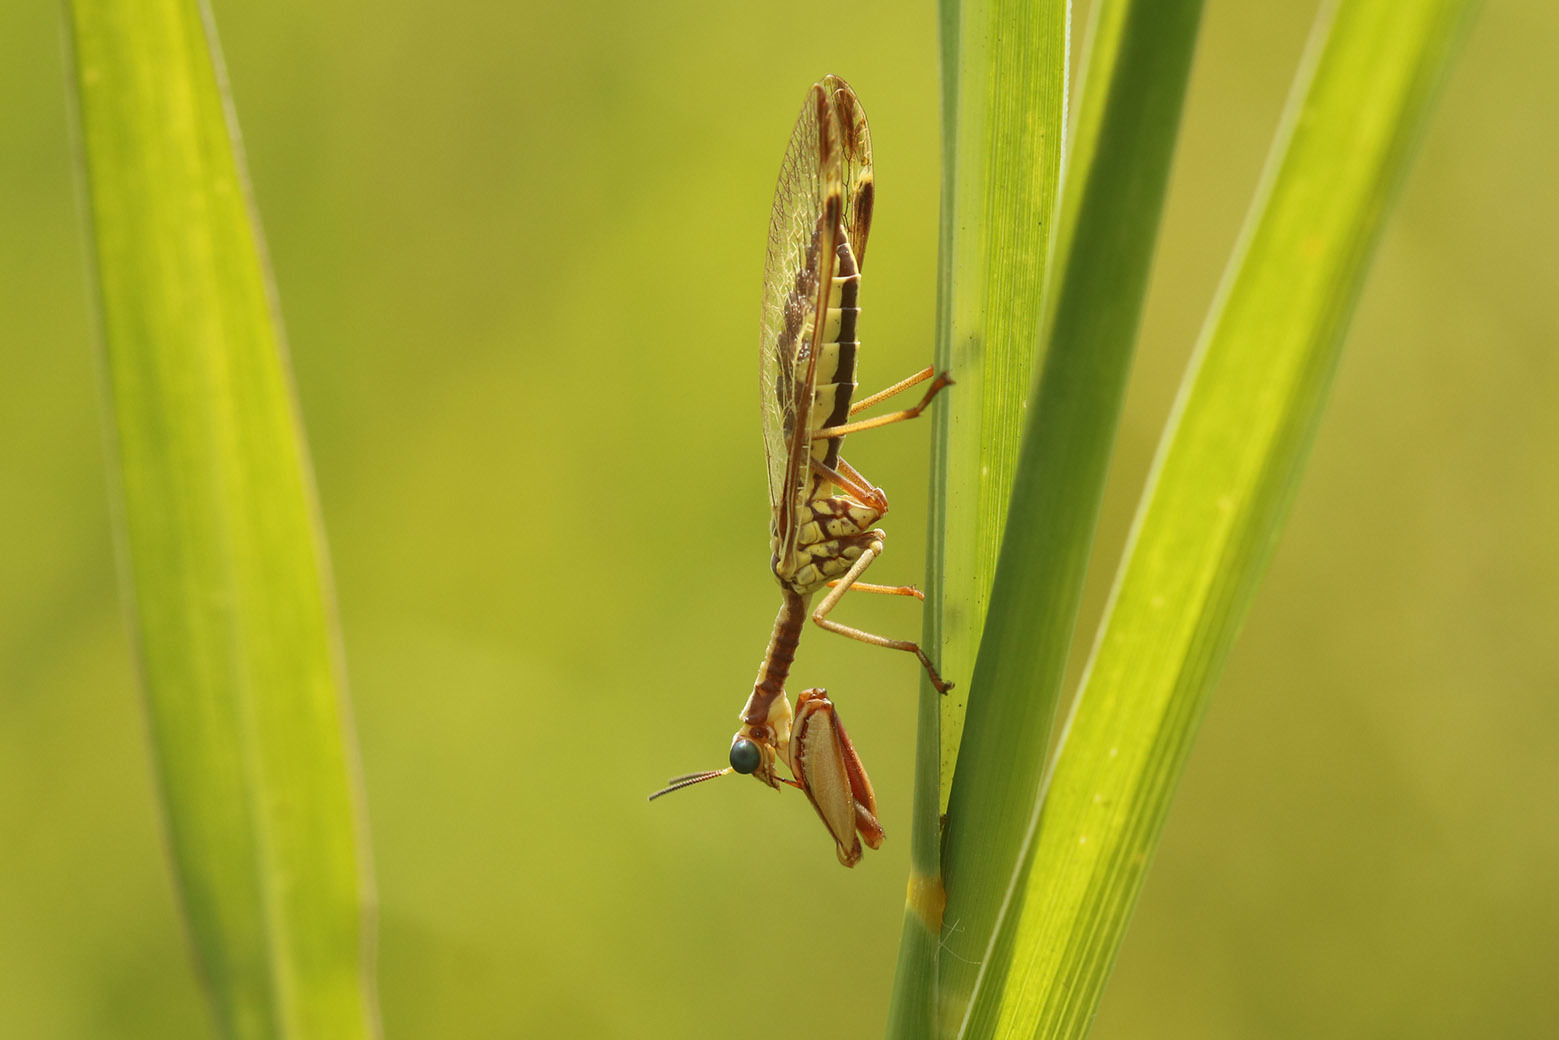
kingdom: Animalia
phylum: Arthropoda
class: Insecta
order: Neuroptera
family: Mantispidae
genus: Paramantispa
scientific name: Paramantispa prolixa
